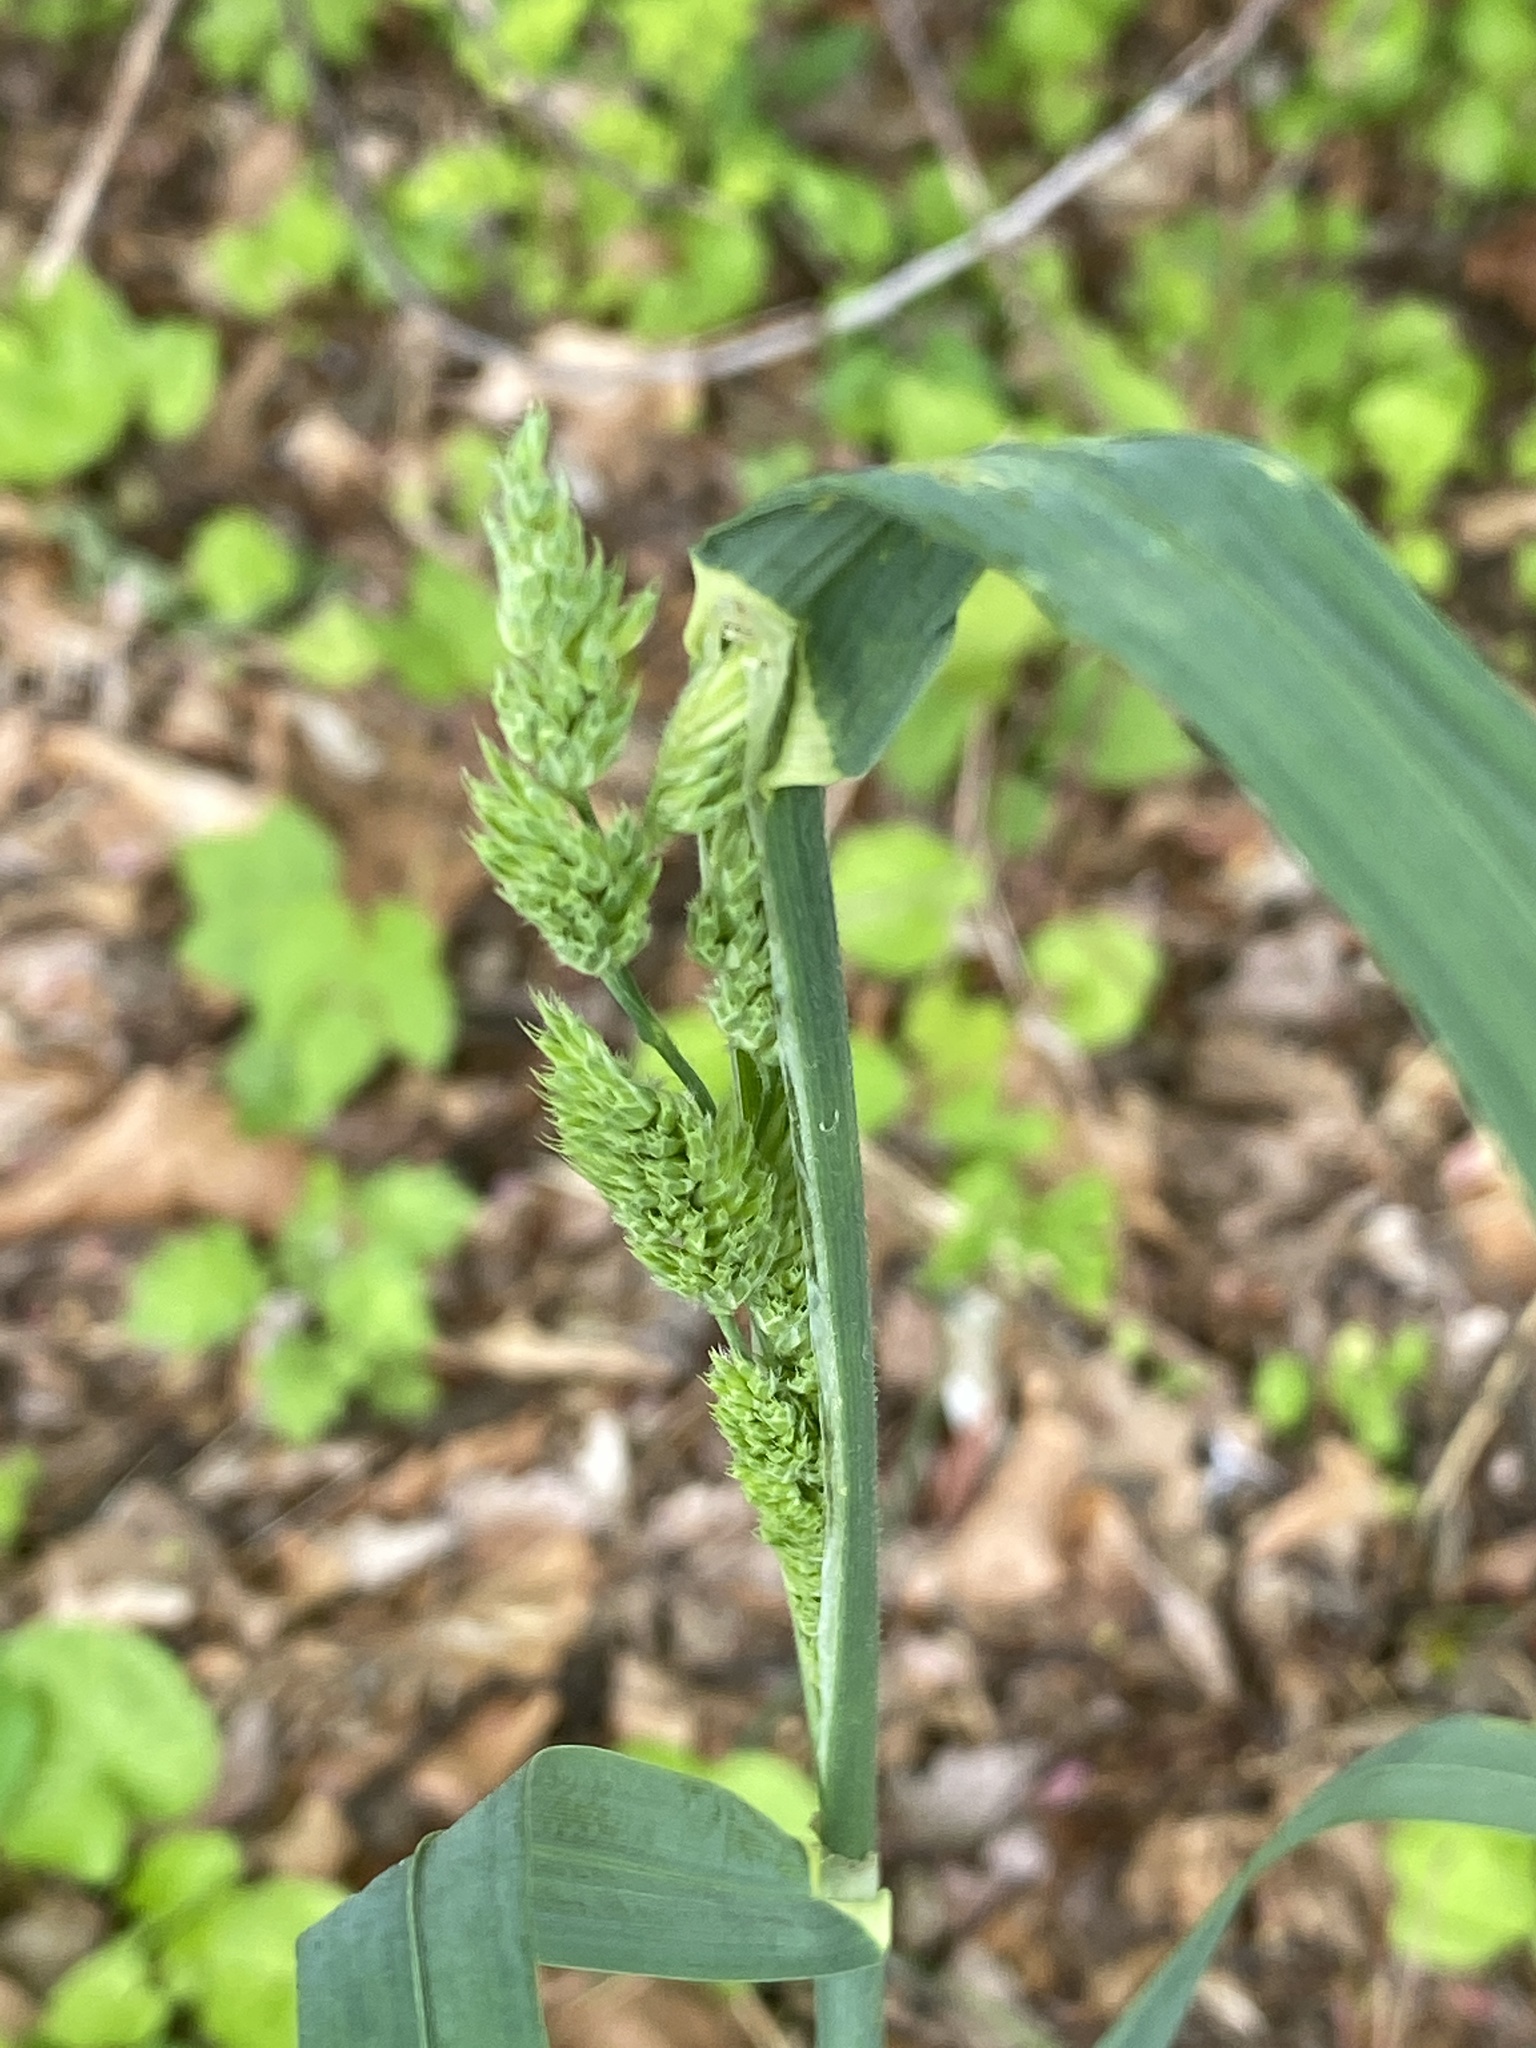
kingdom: Plantae
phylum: Tracheophyta
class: Liliopsida
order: Poales
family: Poaceae
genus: Dactylis
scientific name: Dactylis glomerata
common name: Orchardgrass
